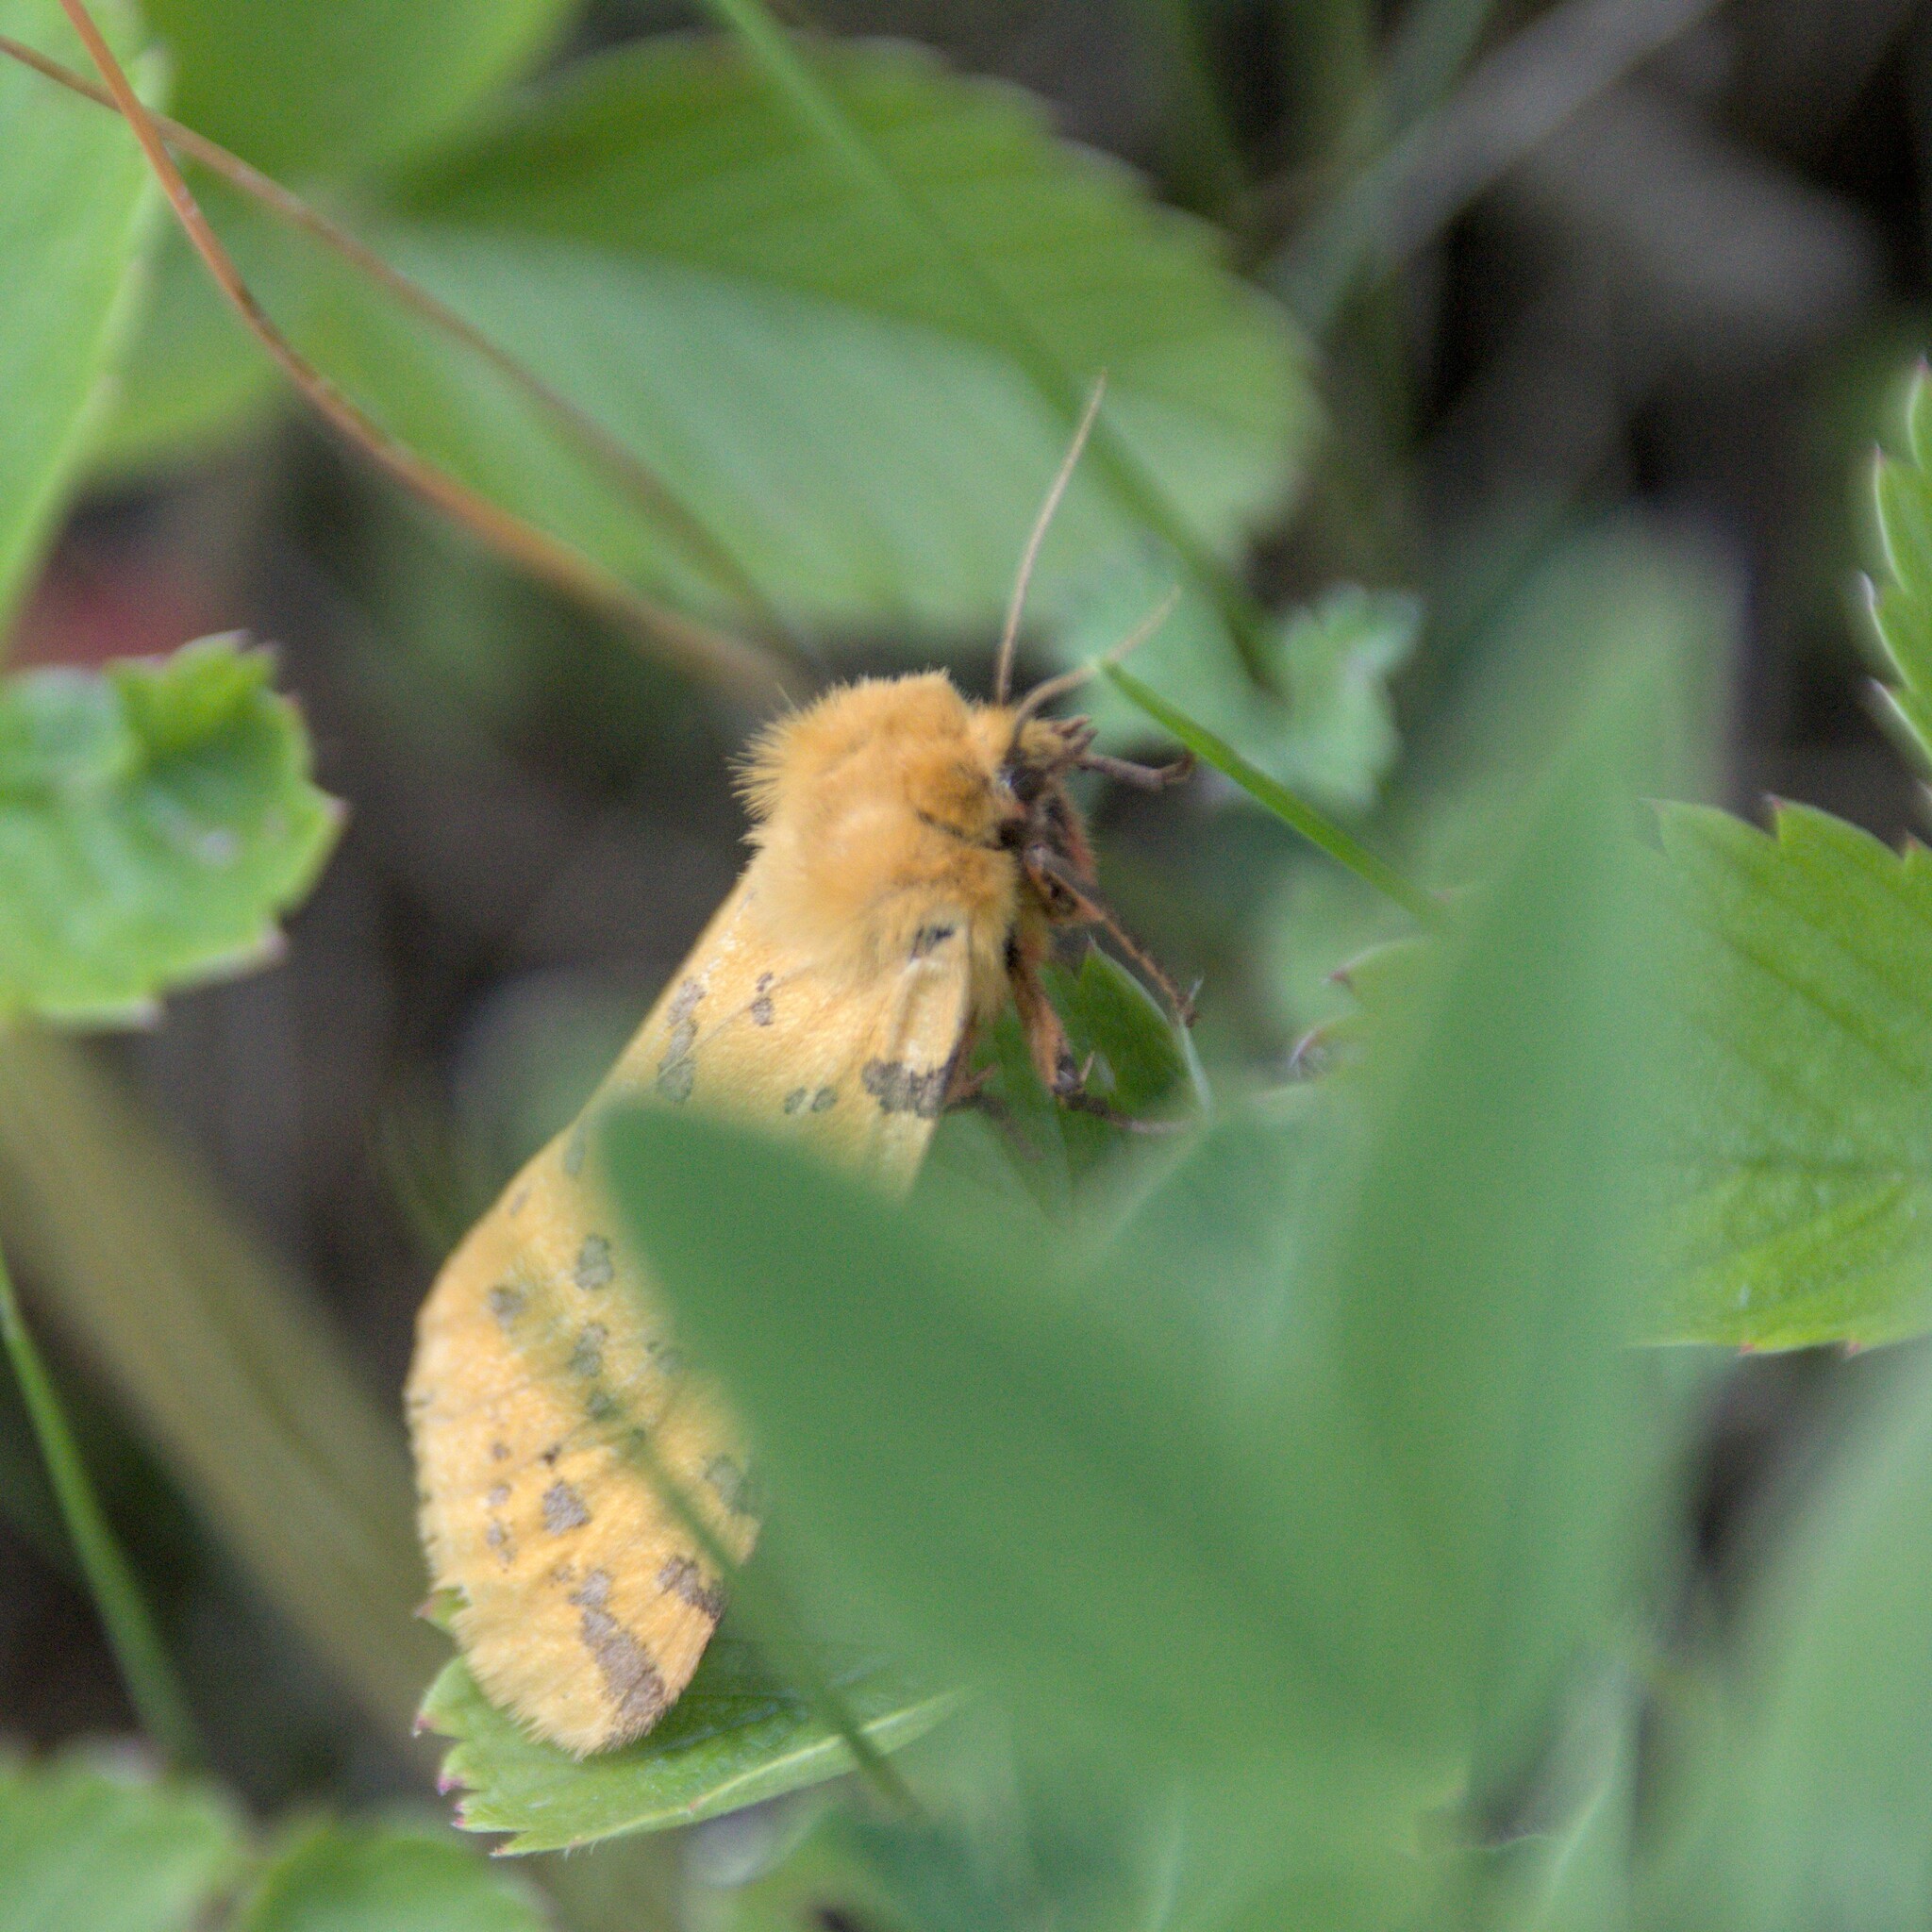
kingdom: Animalia
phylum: Arthropoda
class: Insecta
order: Lepidoptera
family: Erebidae
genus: Rhyparia
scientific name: Rhyparia purpurata
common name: Purple tiger
